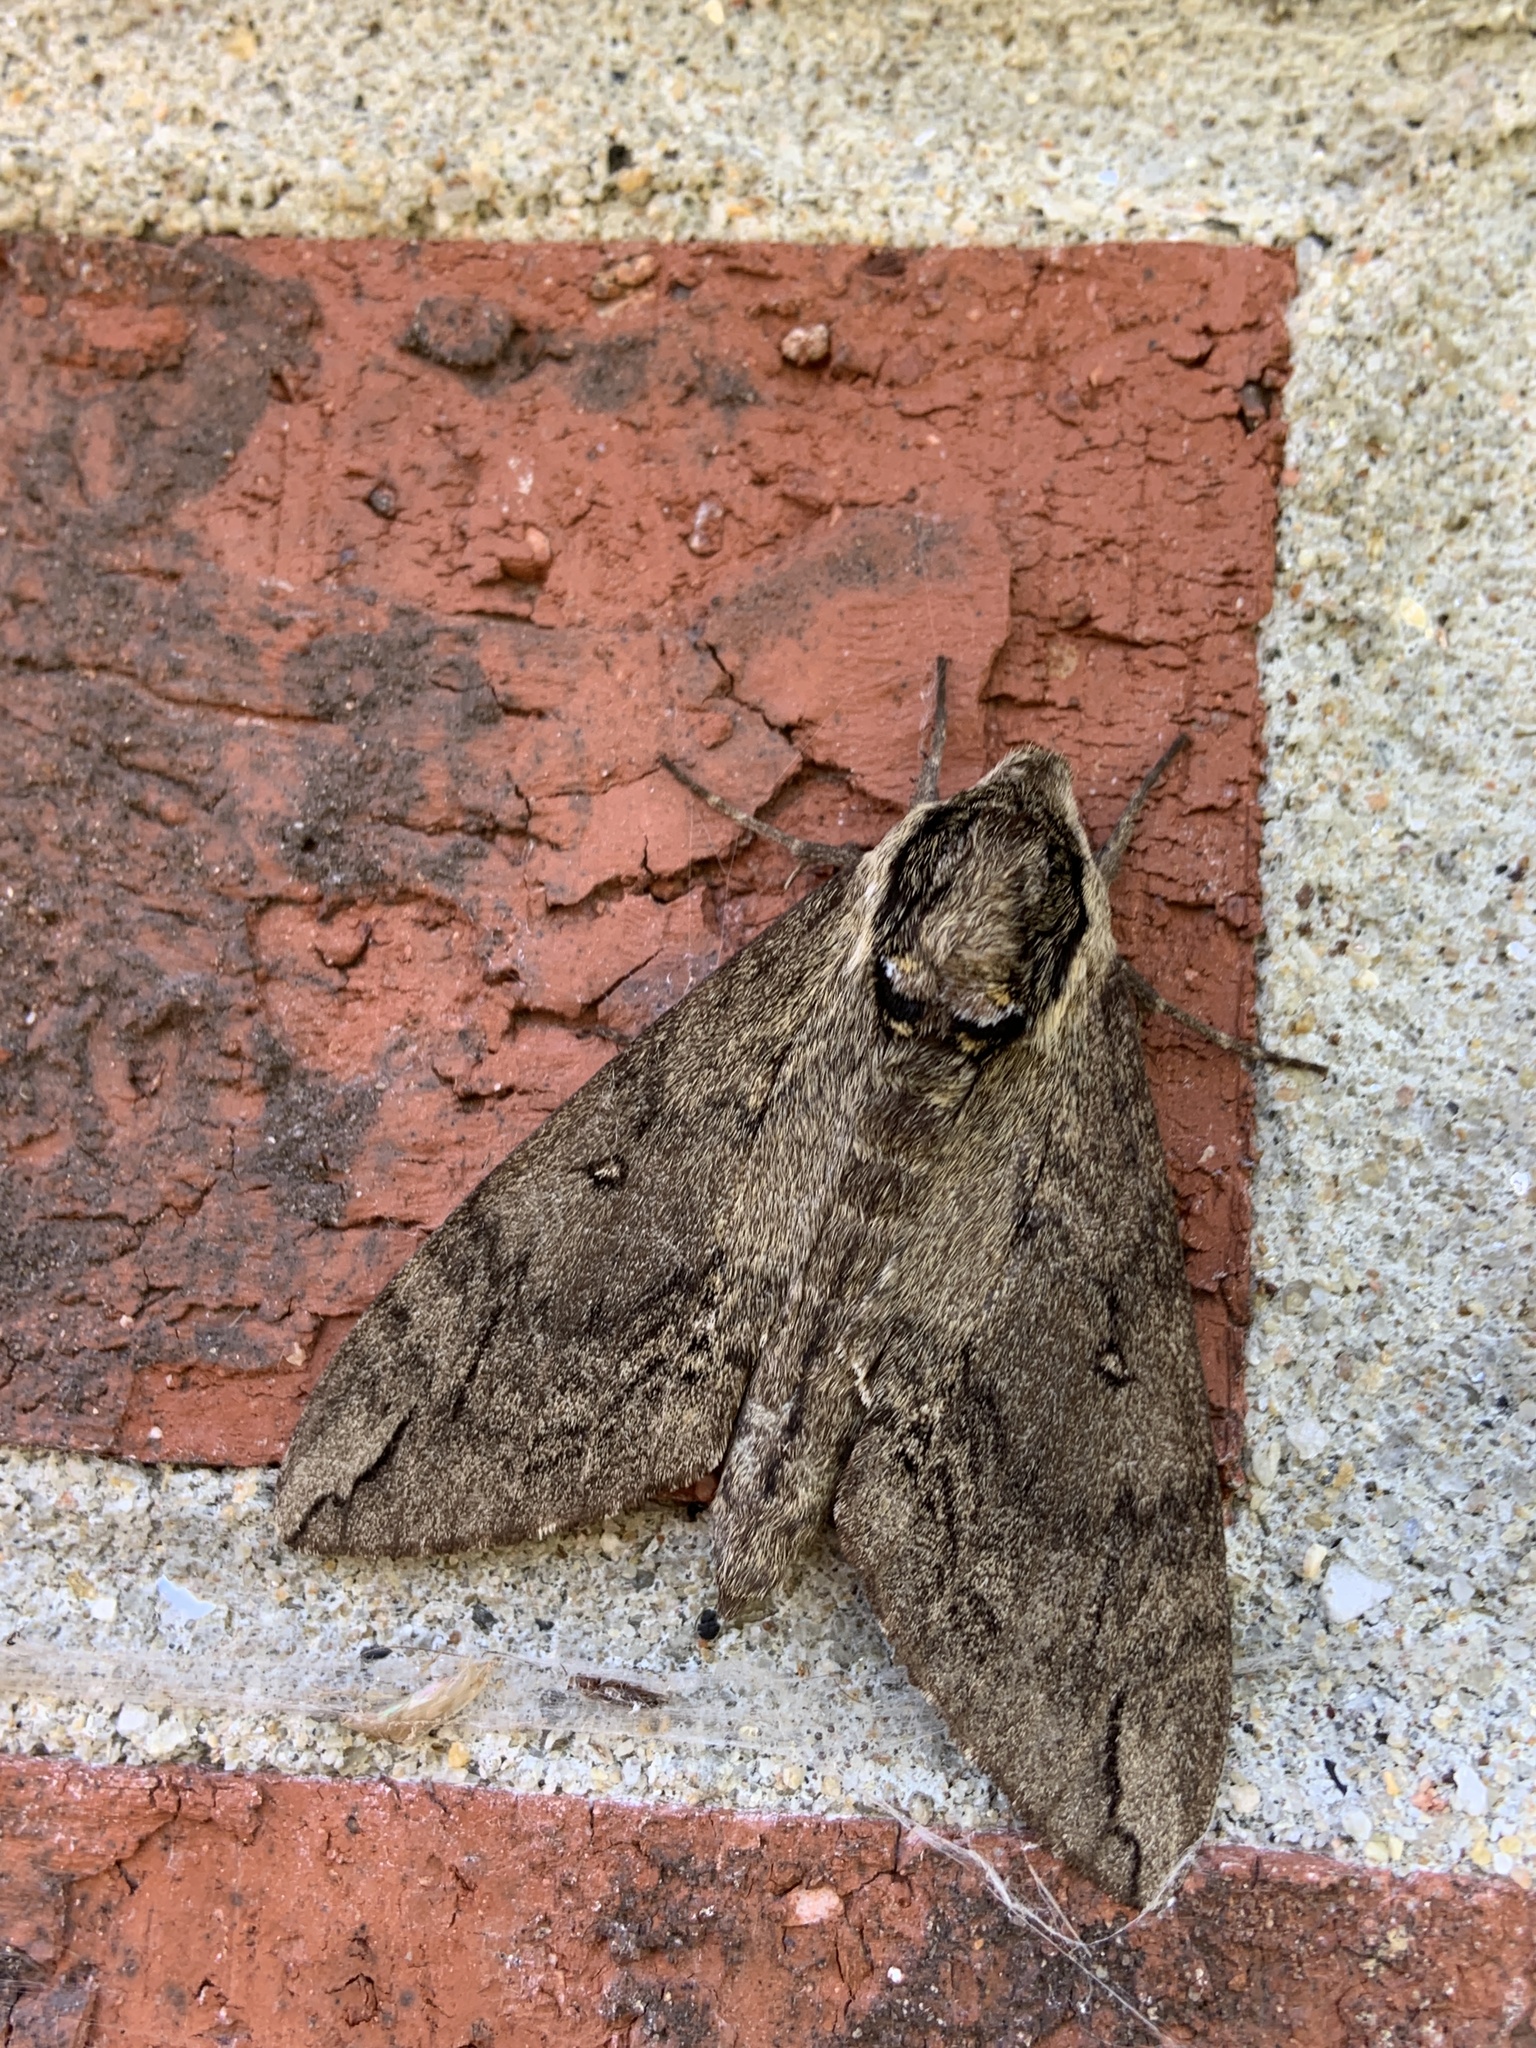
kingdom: Animalia
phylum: Arthropoda
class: Insecta
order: Lepidoptera
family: Sphingidae
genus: Ceratomia
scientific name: Ceratomia catalpae
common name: Catalpa hornworm
